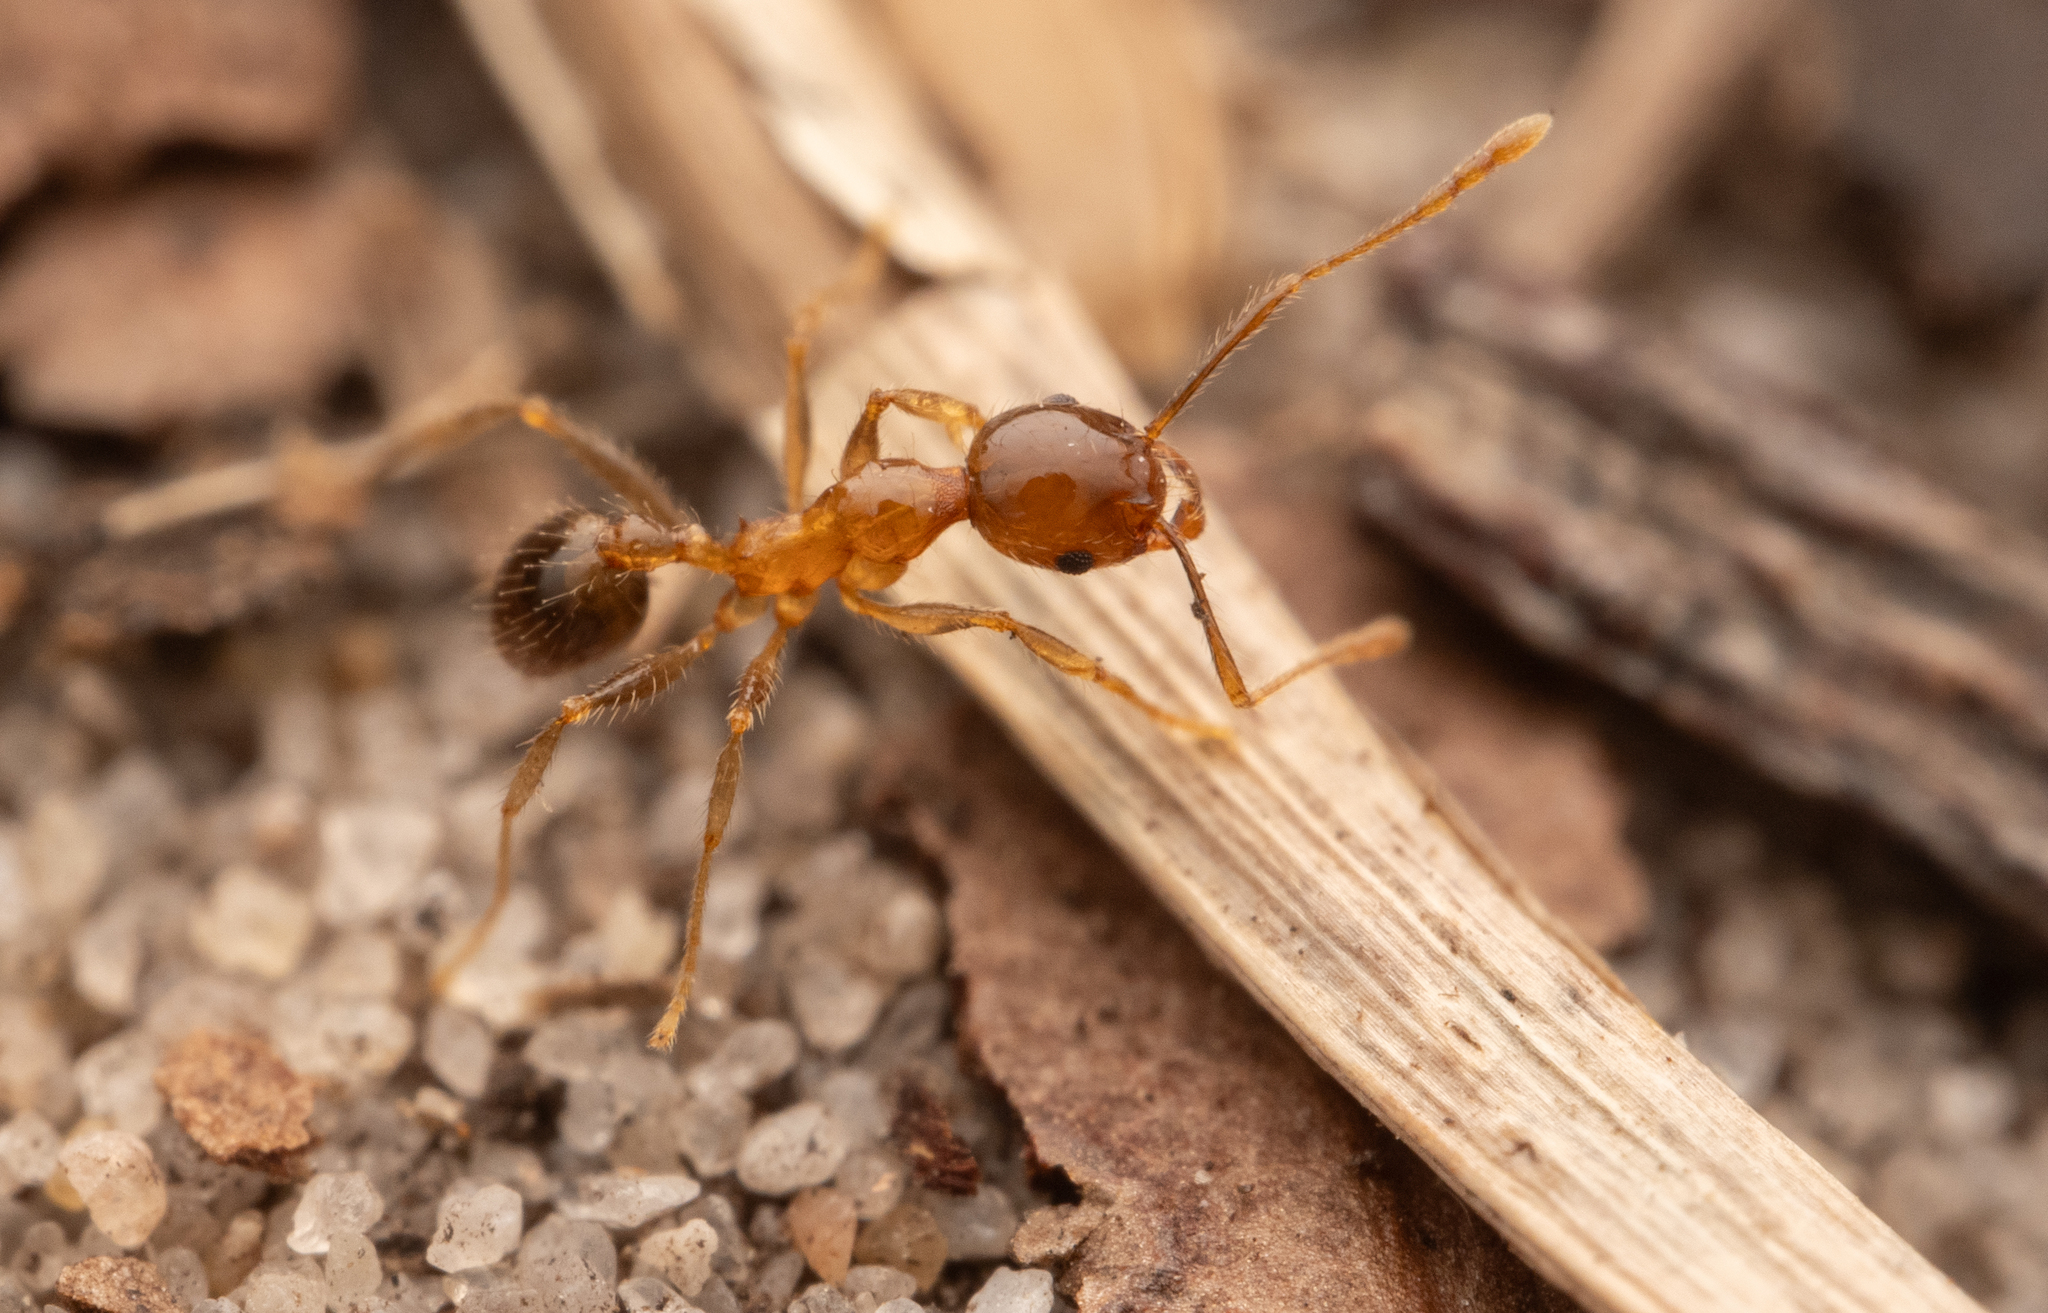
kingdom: Animalia
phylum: Arthropoda
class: Insecta
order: Hymenoptera
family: Formicidae
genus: Pheidole
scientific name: Pheidole megacephala
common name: Bigheaded ant
